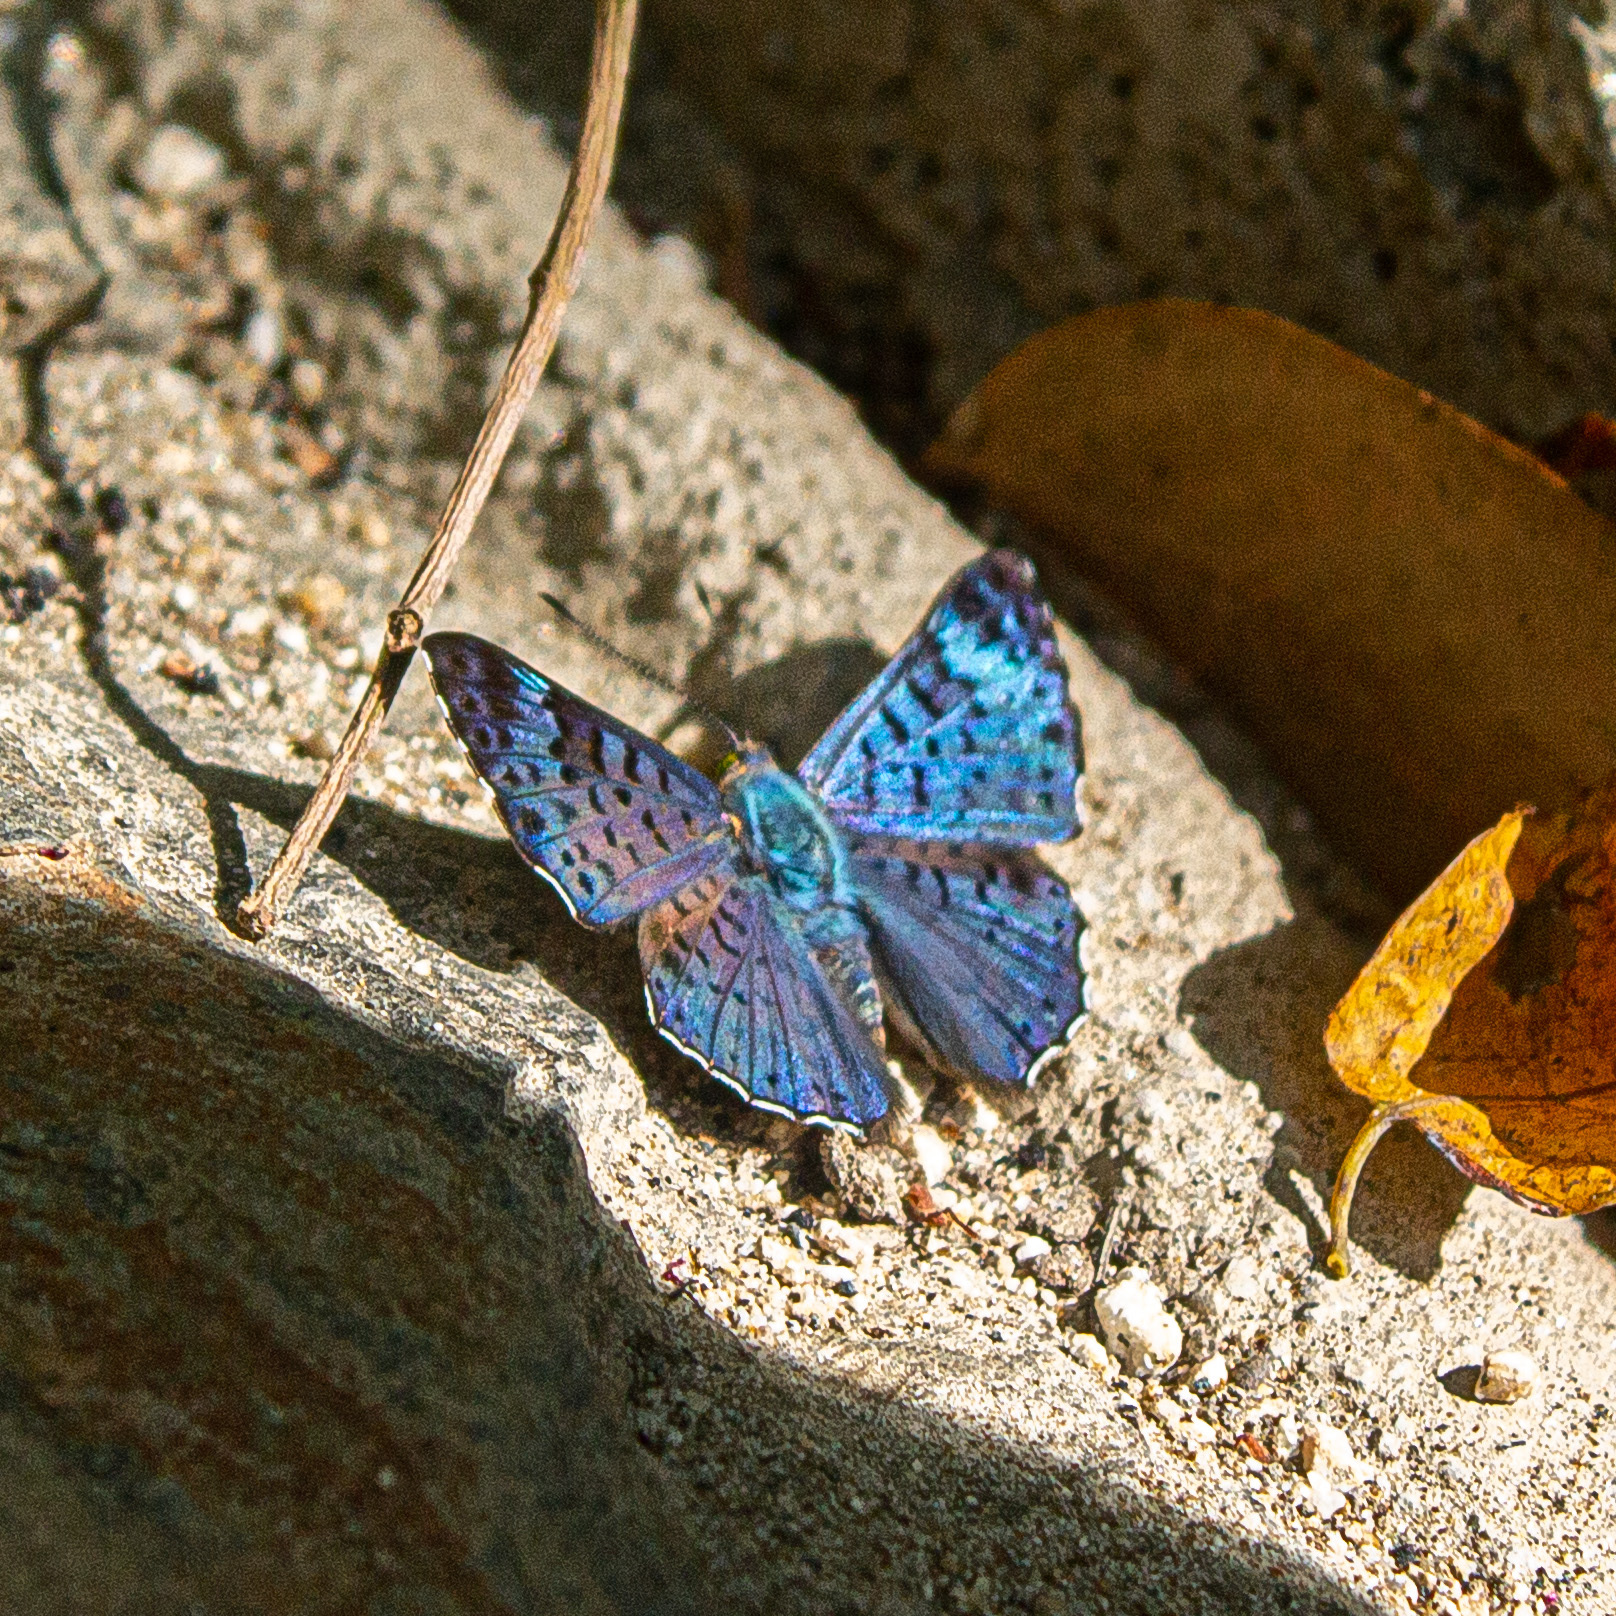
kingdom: Animalia
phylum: Arthropoda
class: Insecta
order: Lepidoptera
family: Riodinidae
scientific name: Riodinidae
